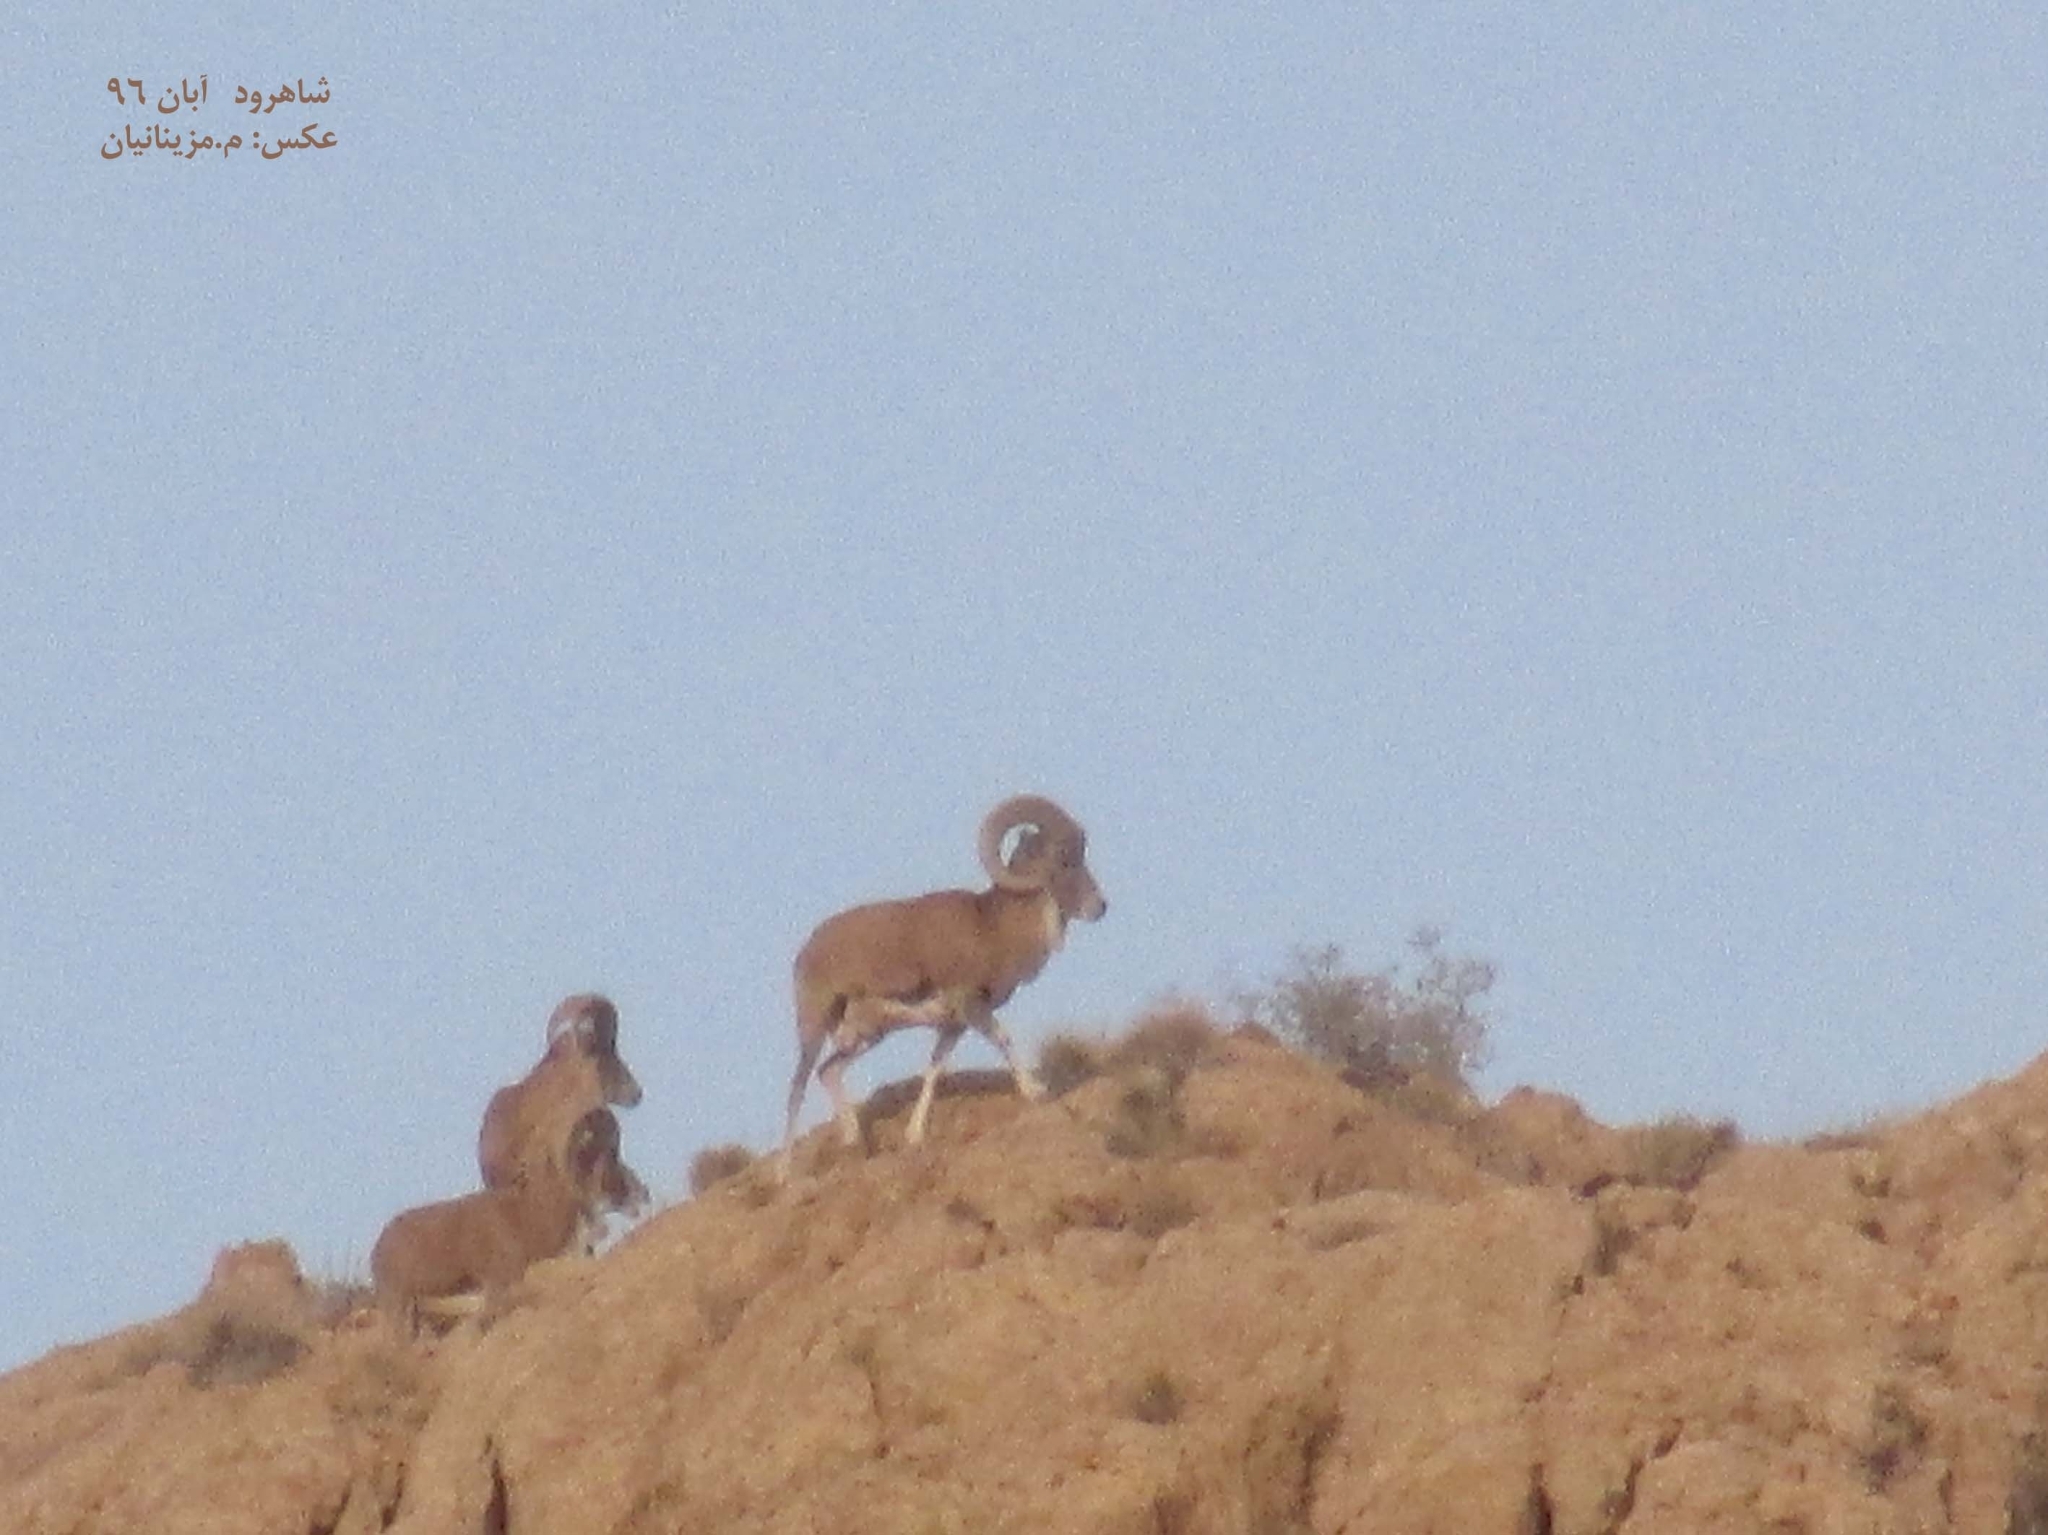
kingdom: Animalia
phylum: Chordata
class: Mammalia
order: Artiodactyla
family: Bovidae
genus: Ovis
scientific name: Ovis aries
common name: Domestic sheep
